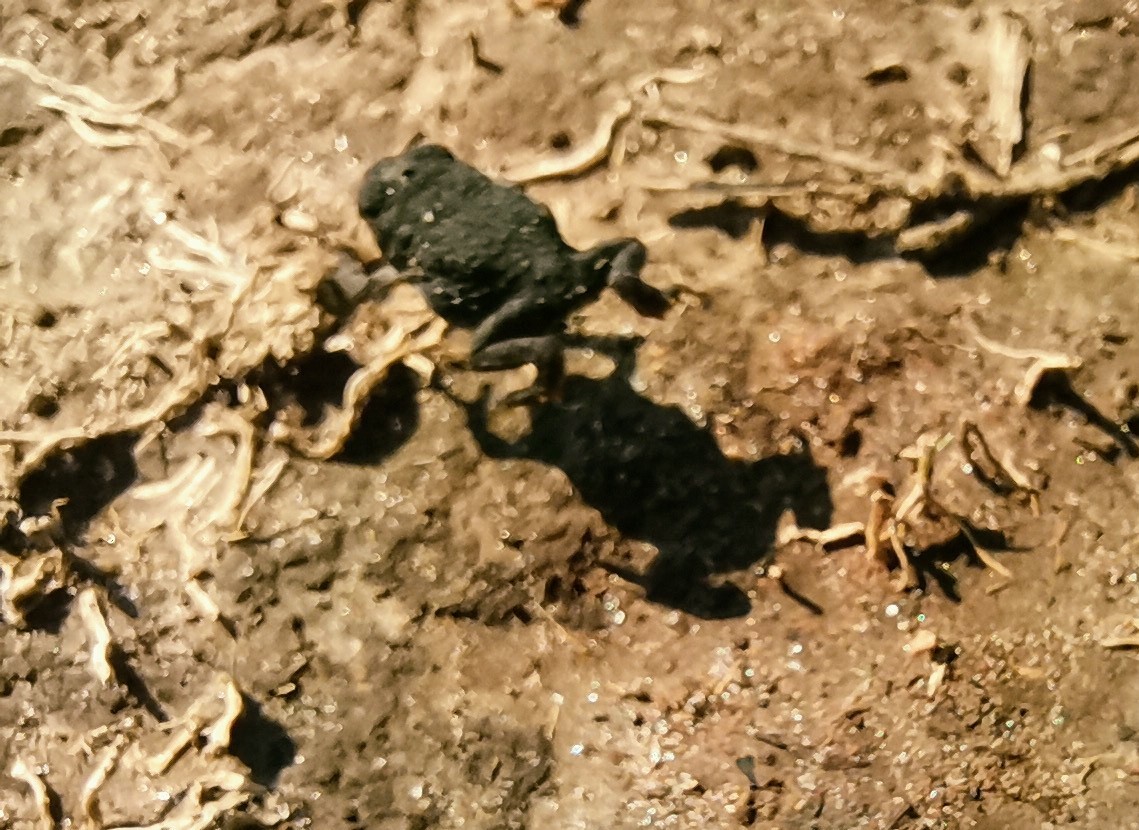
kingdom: Animalia
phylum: Chordata
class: Amphibia
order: Anura
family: Bufonidae
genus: Anaxyrus
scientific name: Anaxyrus compactilis
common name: Plateau toad
